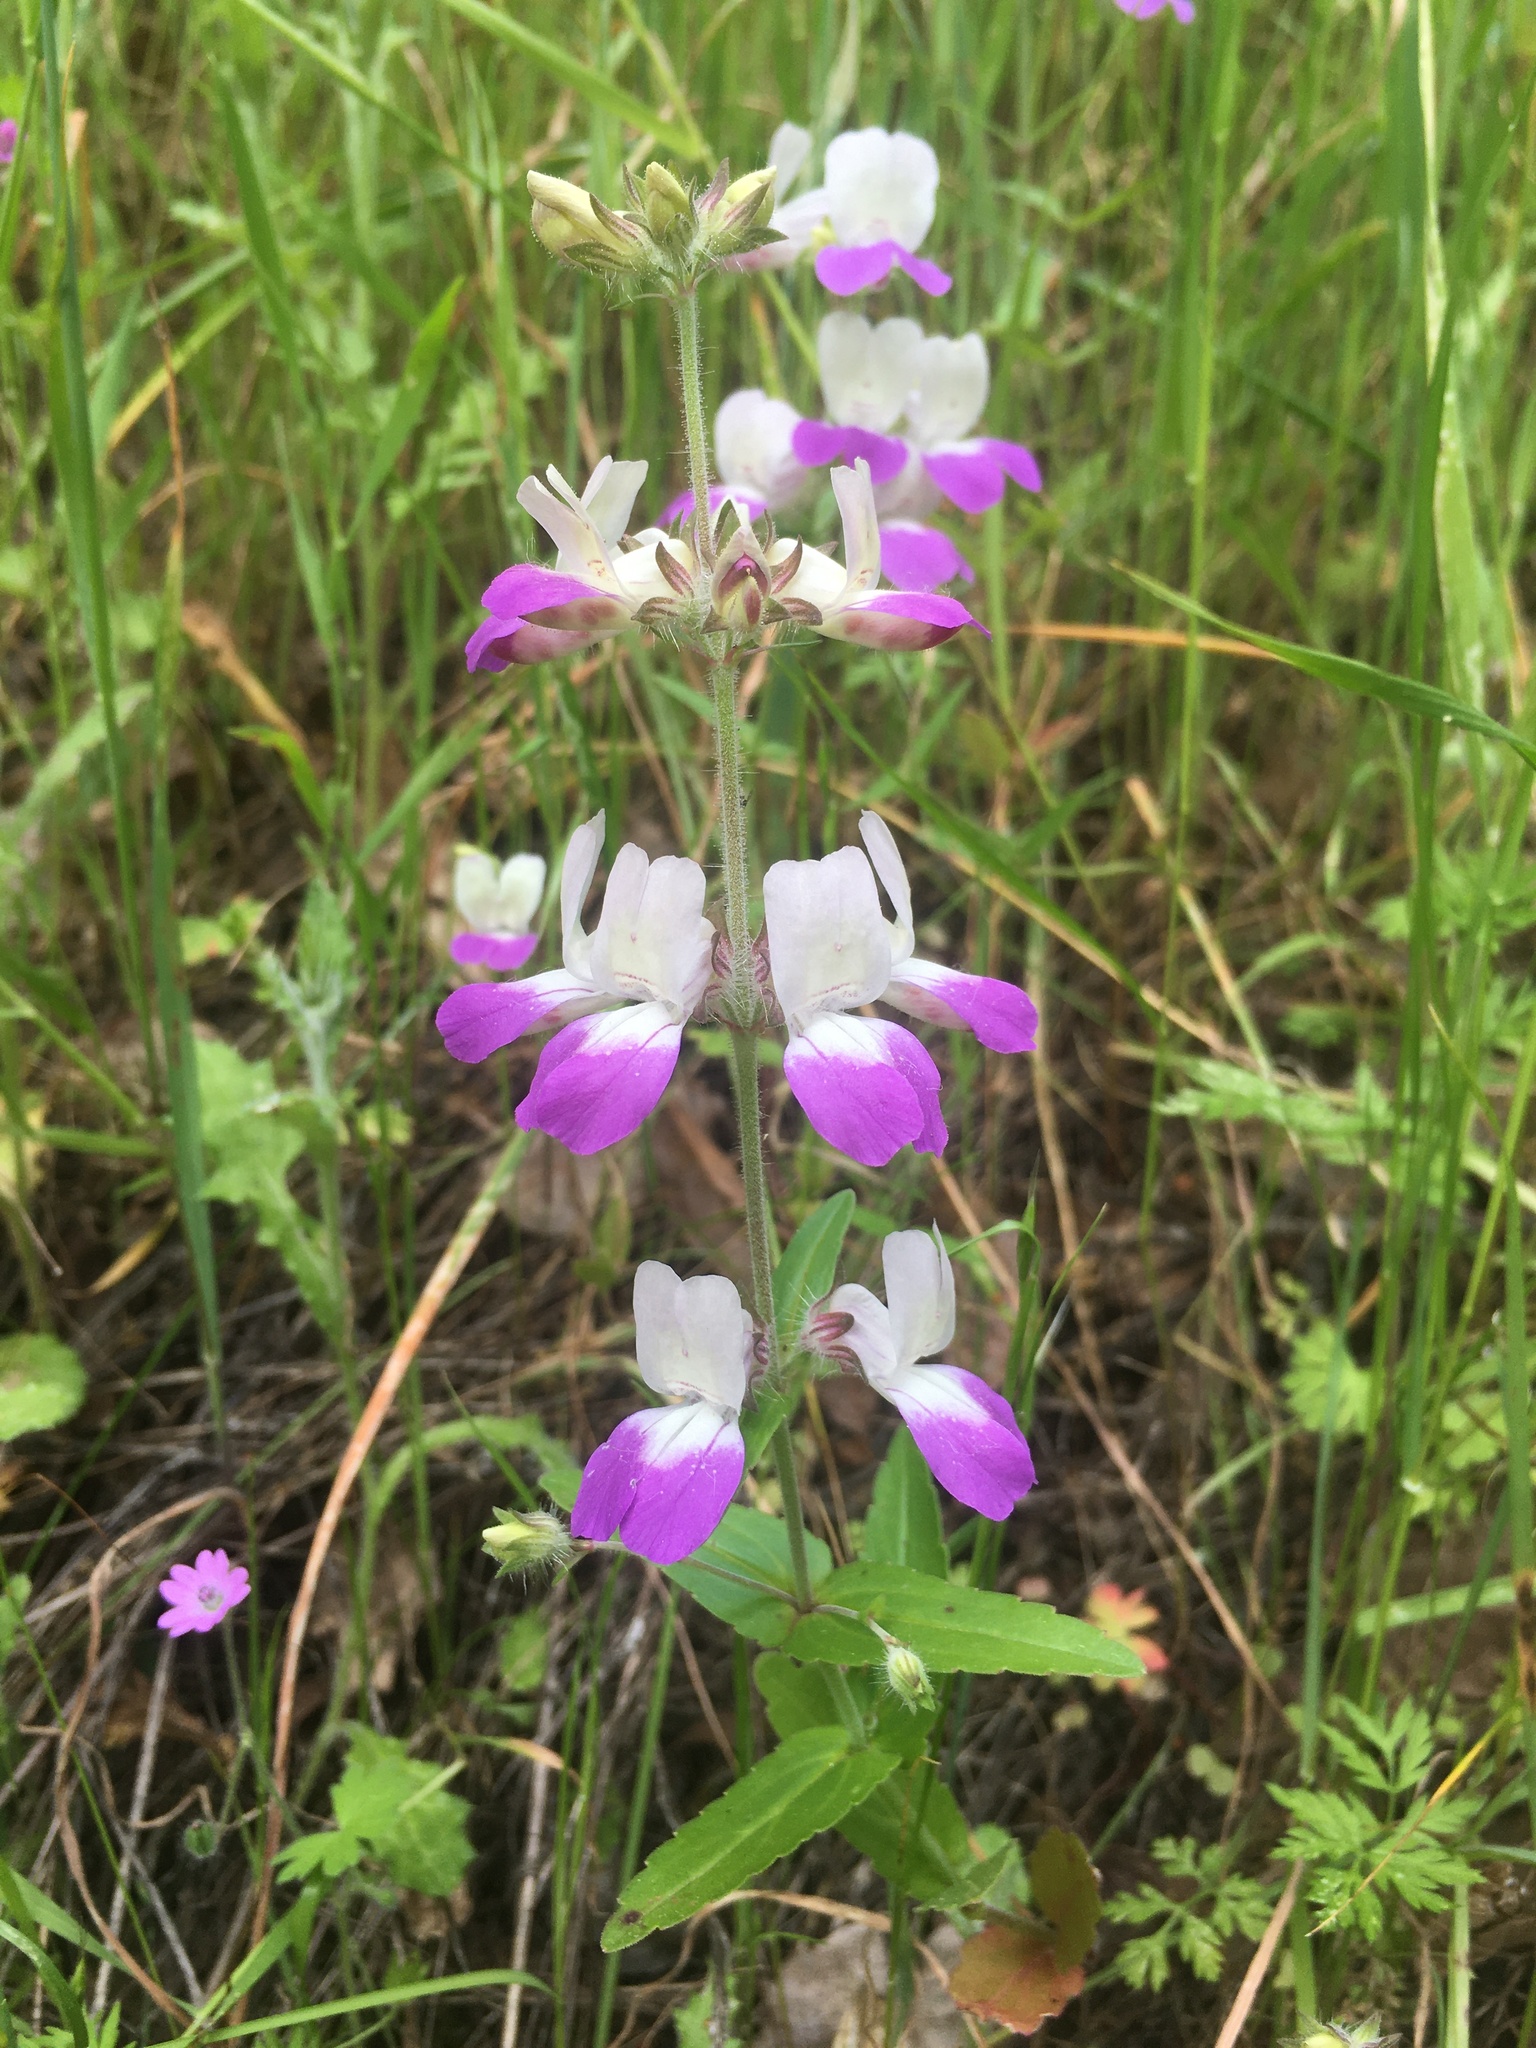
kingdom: Plantae
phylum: Tracheophyta
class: Magnoliopsida
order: Lamiales
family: Plantaginaceae
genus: Collinsia
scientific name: Collinsia heterophylla
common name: Chinese-houses
